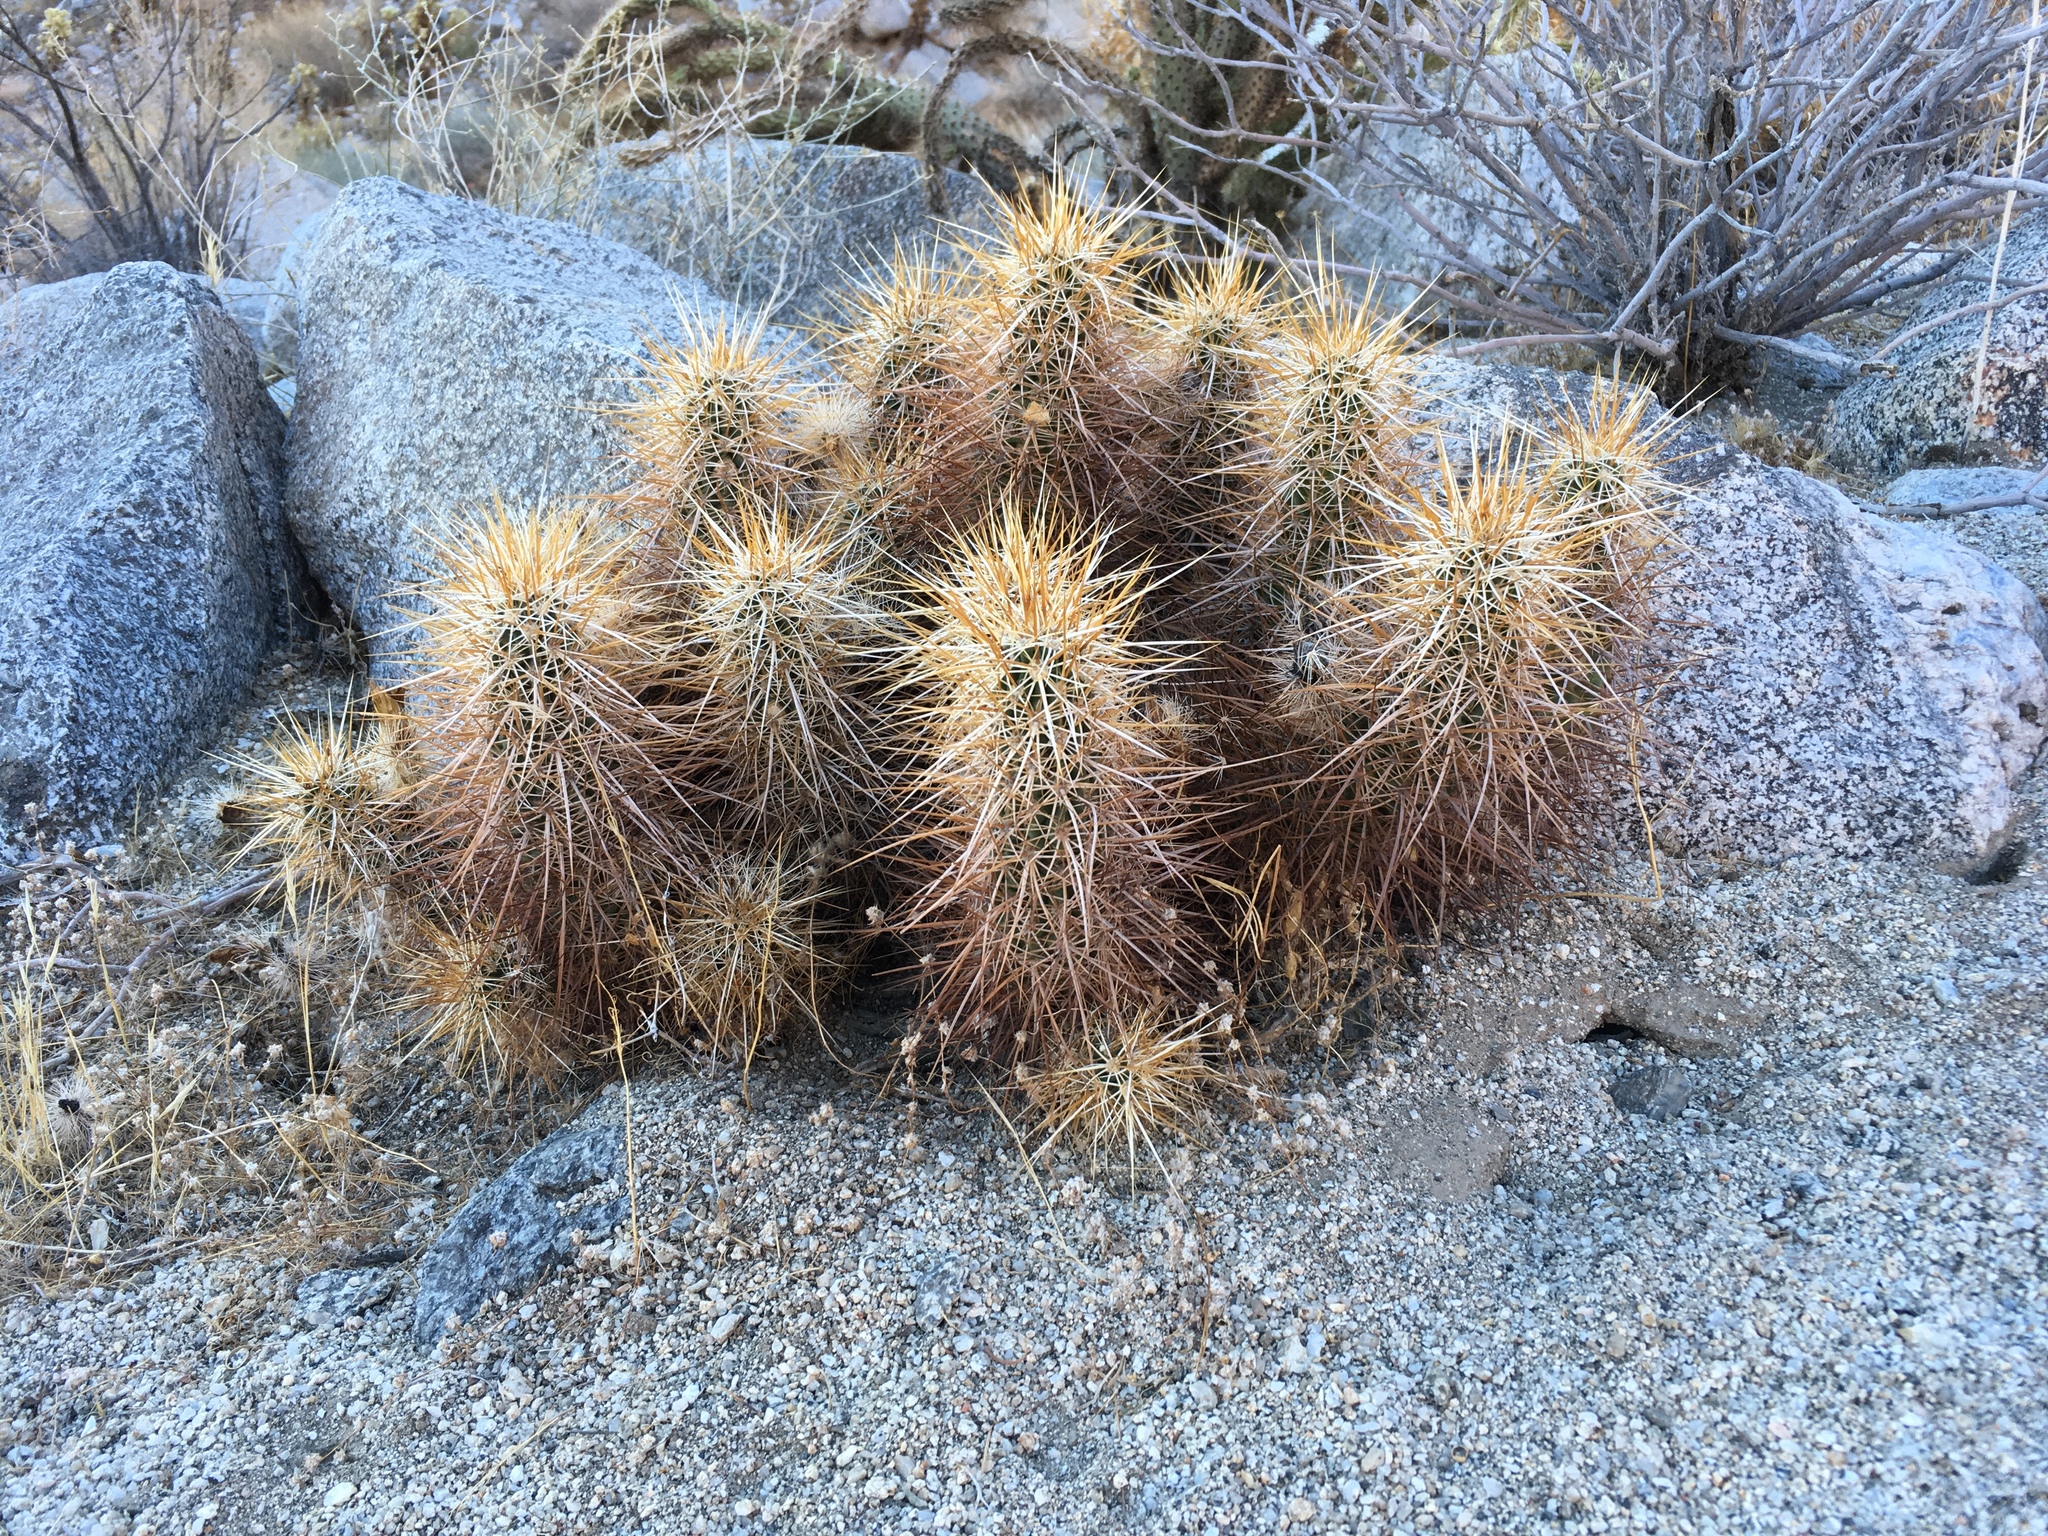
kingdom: Plantae
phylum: Tracheophyta
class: Magnoliopsida
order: Caryophyllales
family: Cactaceae
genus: Echinocereus
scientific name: Echinocereus engelmannii
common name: Engelmann's hedgehog cactus
